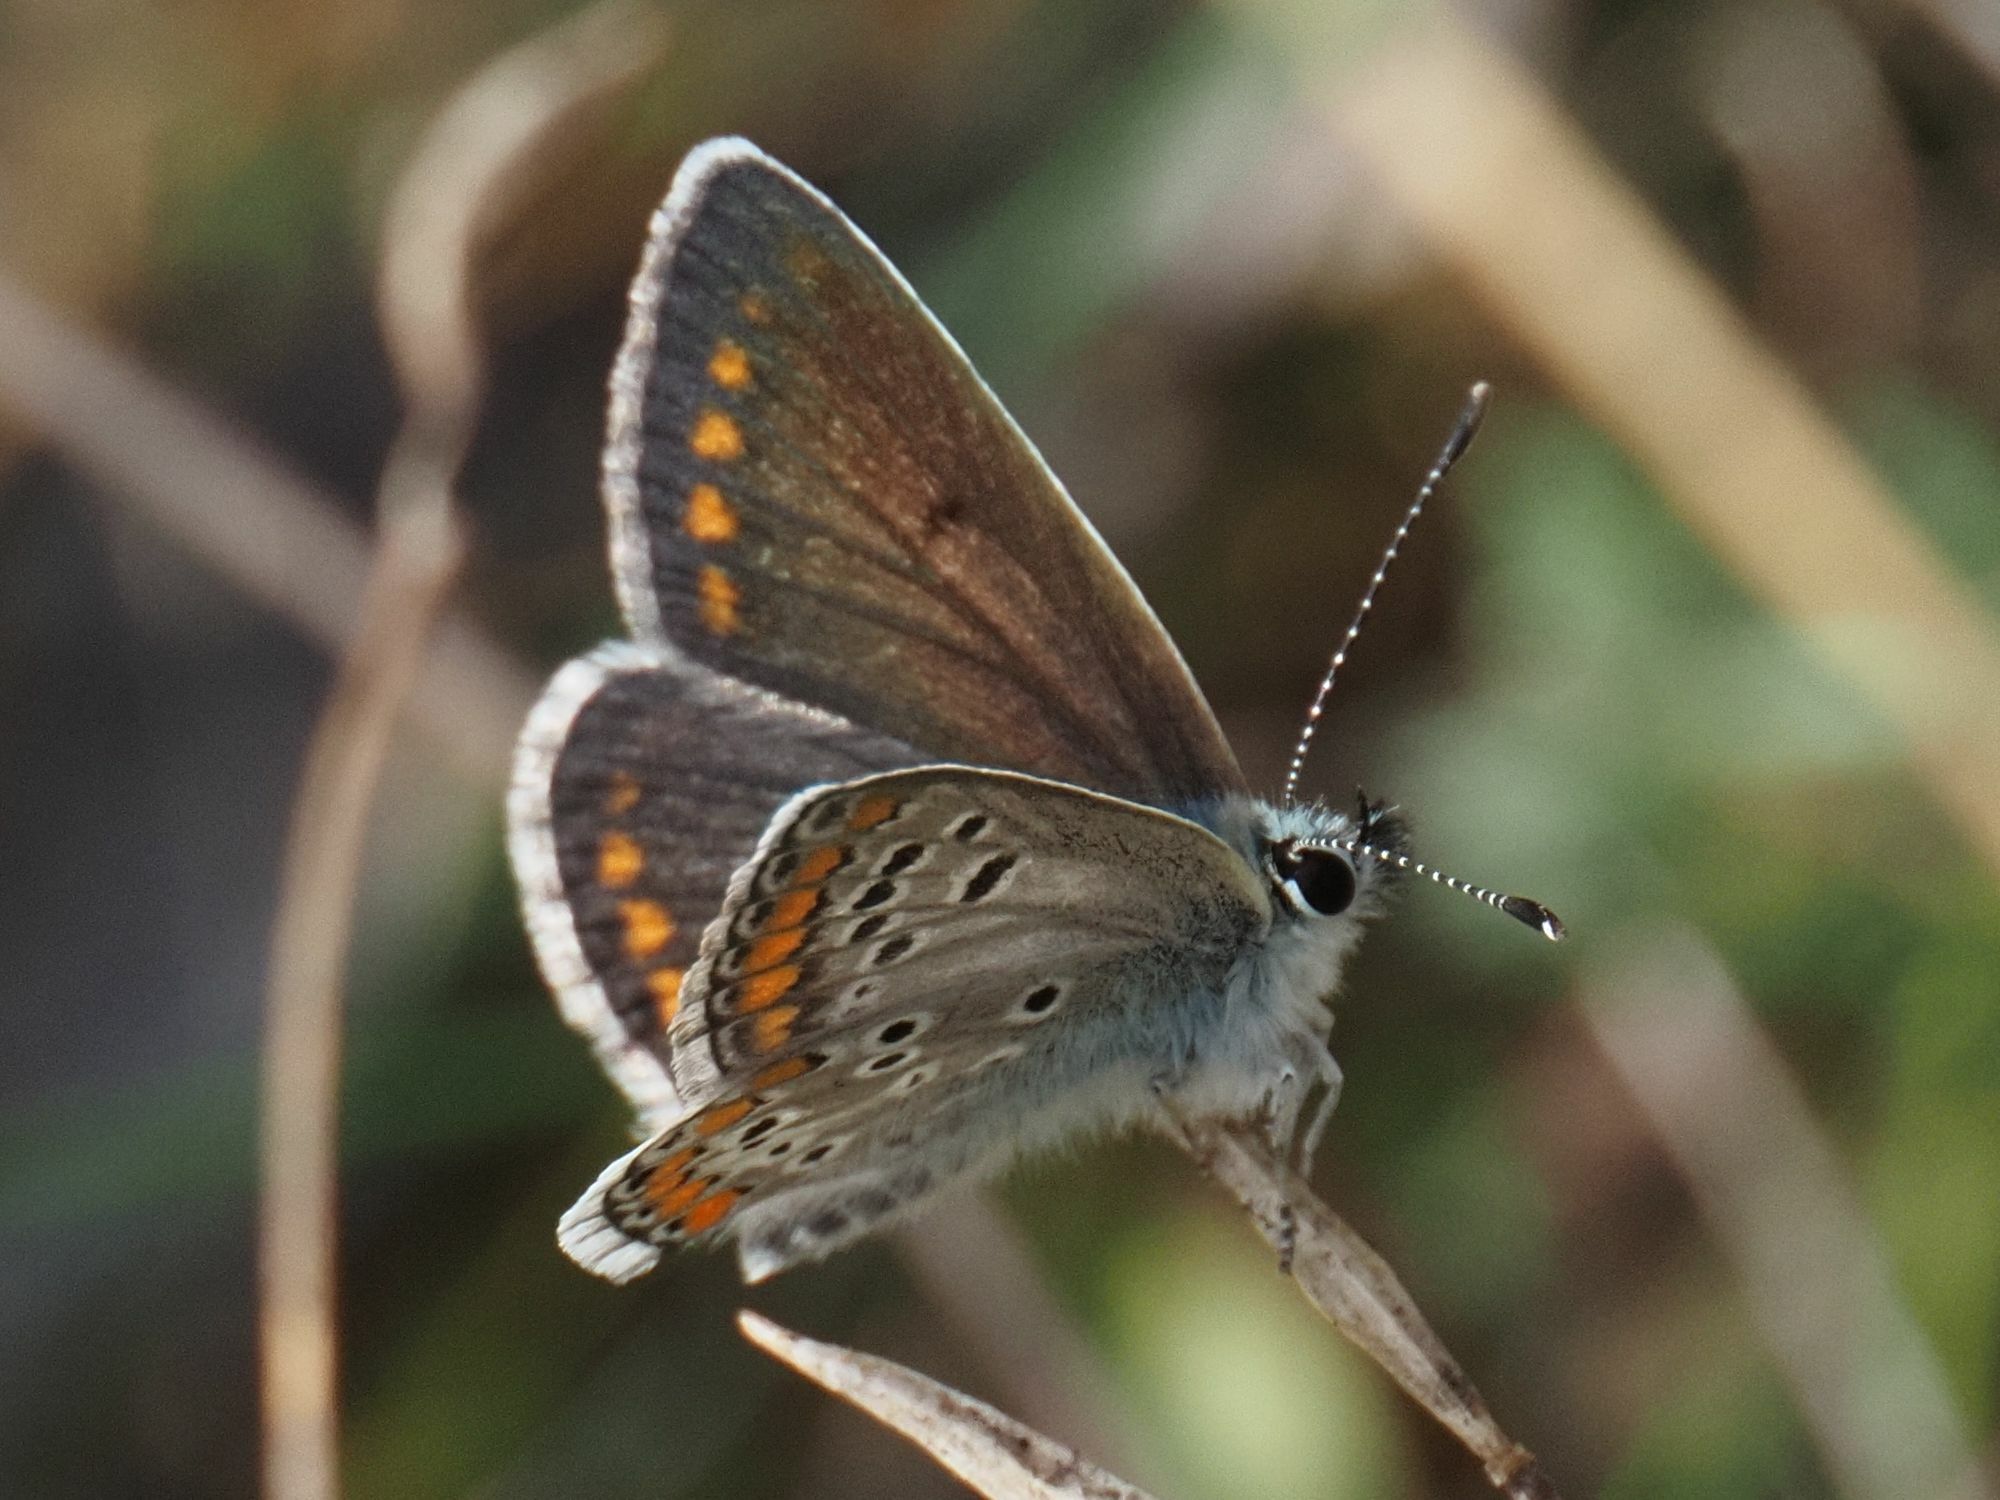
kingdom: Animalia
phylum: Arthropoda
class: Insecta
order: Lepidoptera
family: Lycaenidae
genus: Aricia
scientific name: Aricia agestis
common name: Brown argus
